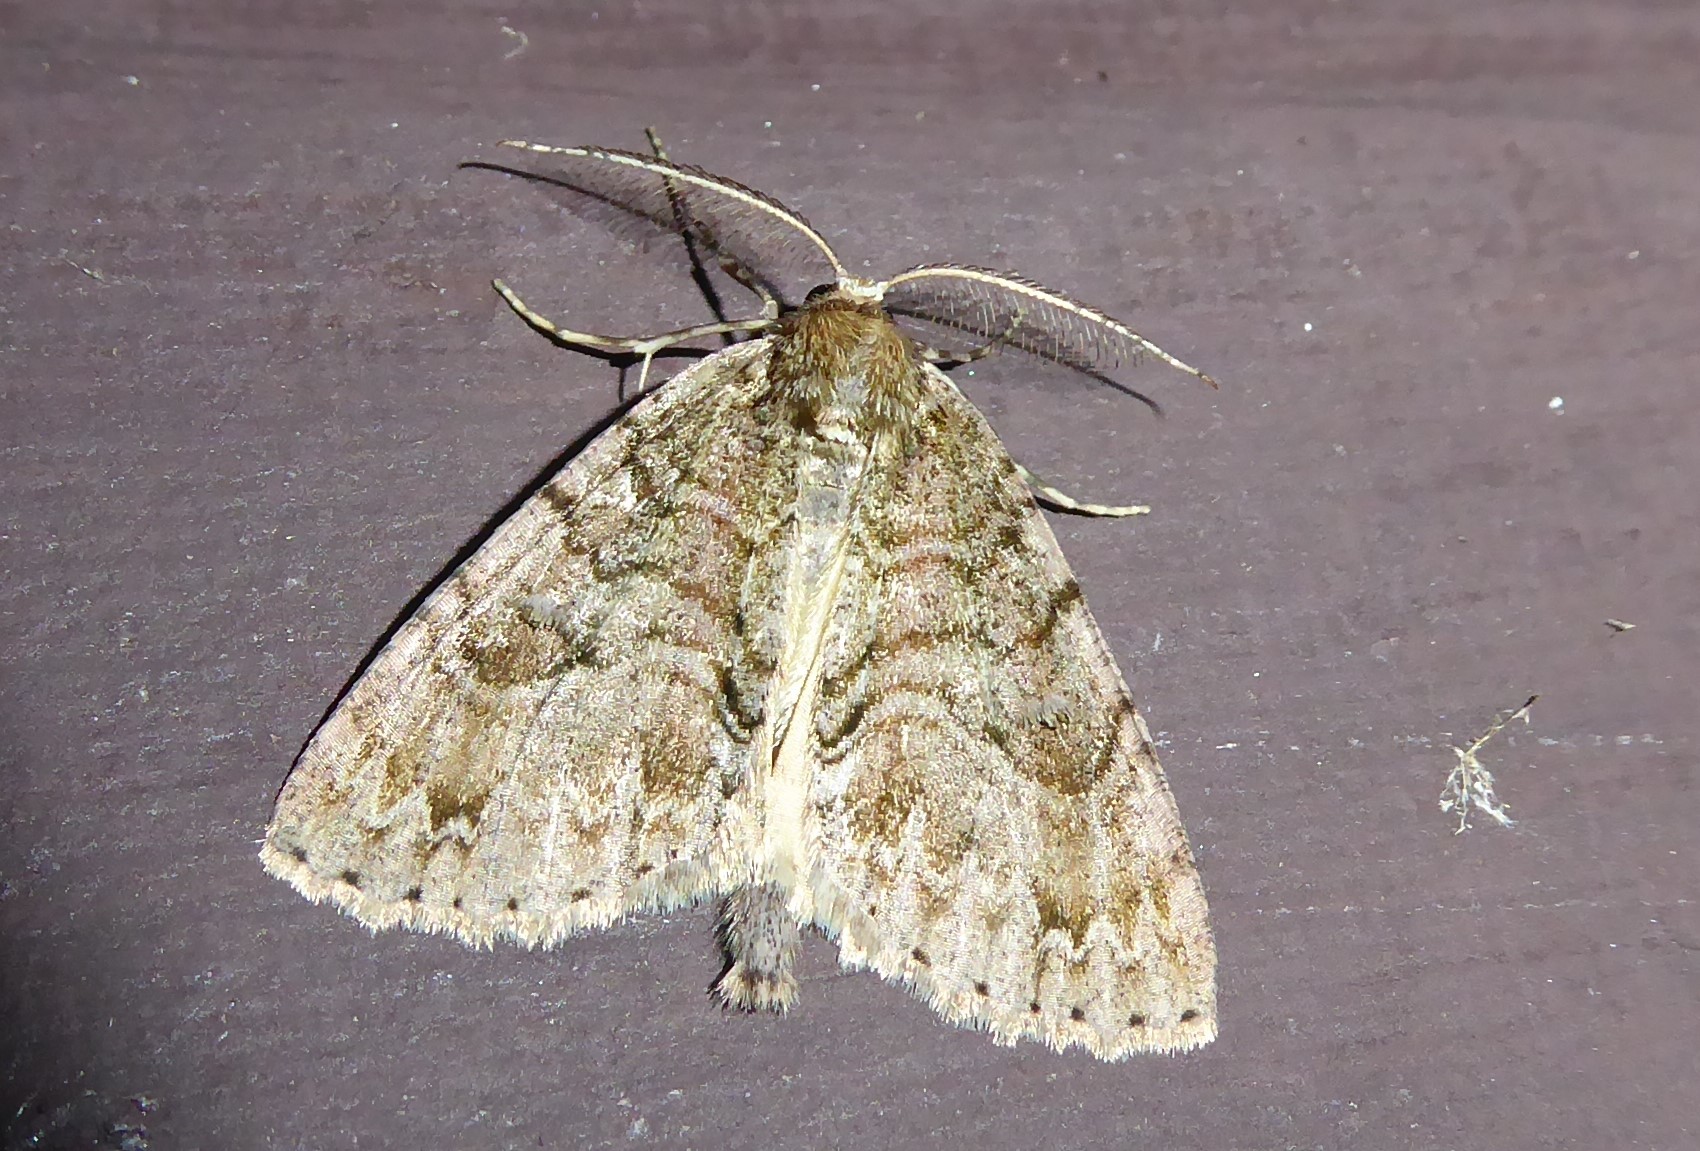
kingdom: Animalia
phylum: Arthropoda
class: Insecta
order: Lepidoptera
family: Geometridae
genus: Pseudocoremia
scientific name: Pseudocoremia suavis
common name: Common forest looper
